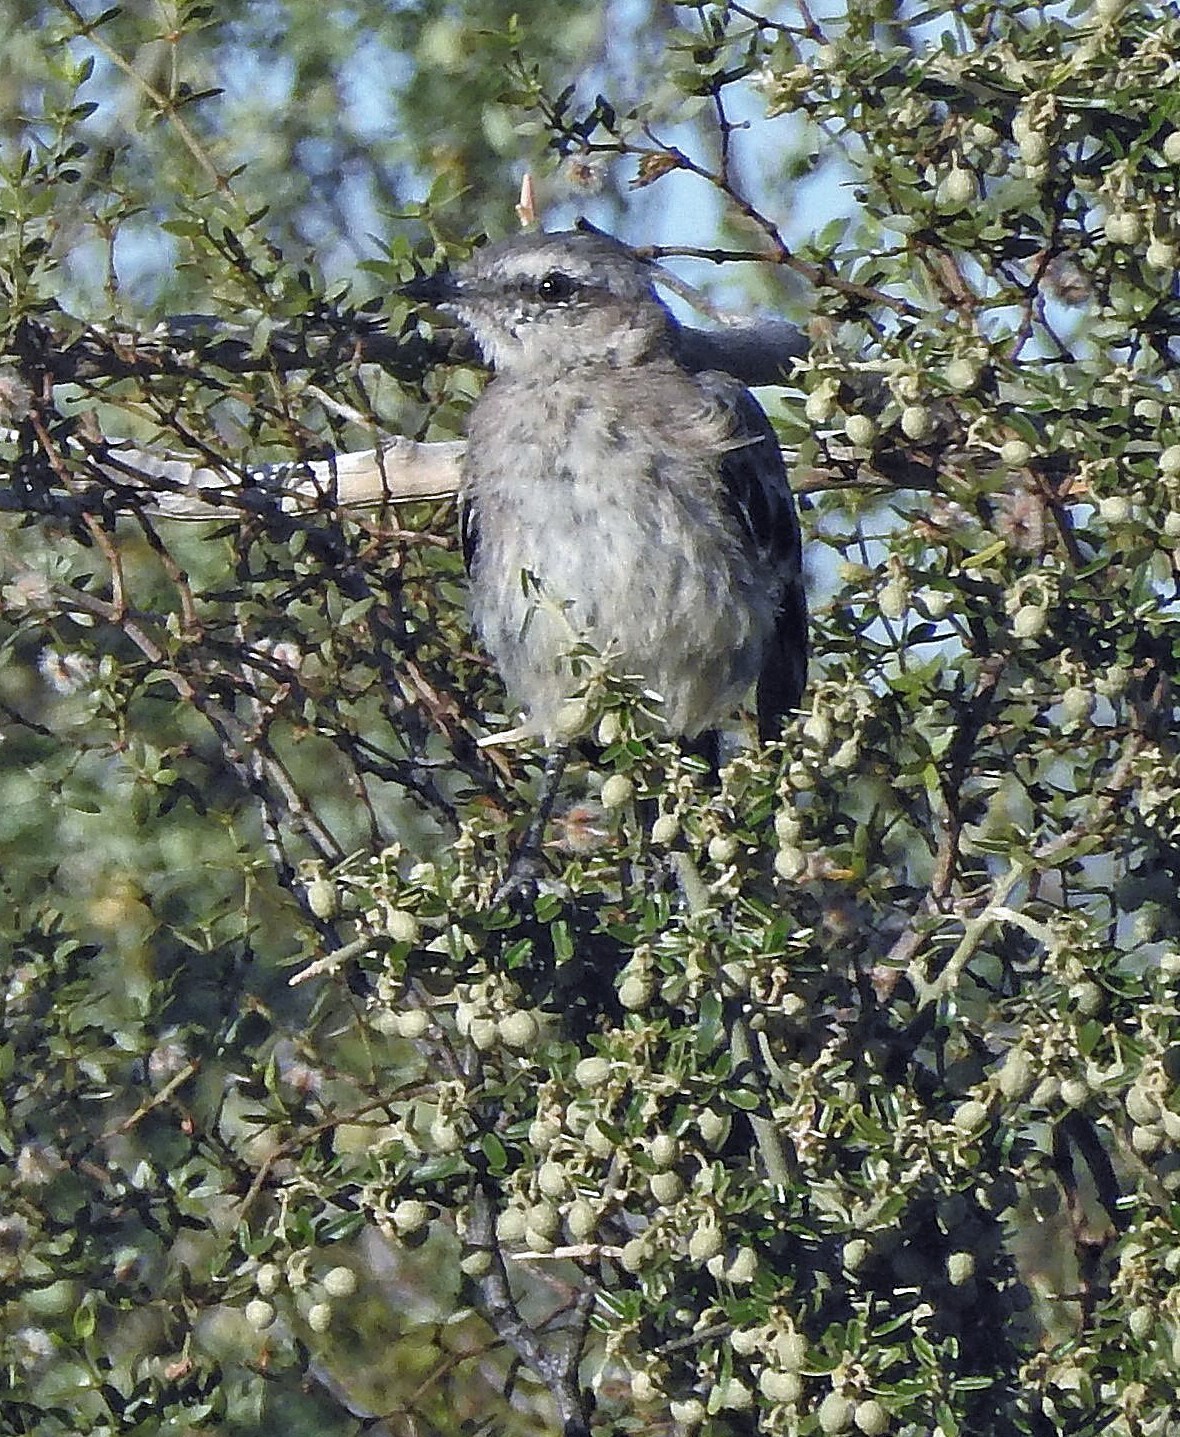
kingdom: Animalia
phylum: Chordata
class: Aves
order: Passeriformes
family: Mimidae
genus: Mimus
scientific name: Mimus patagonicus
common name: Patagonian mockingbird
